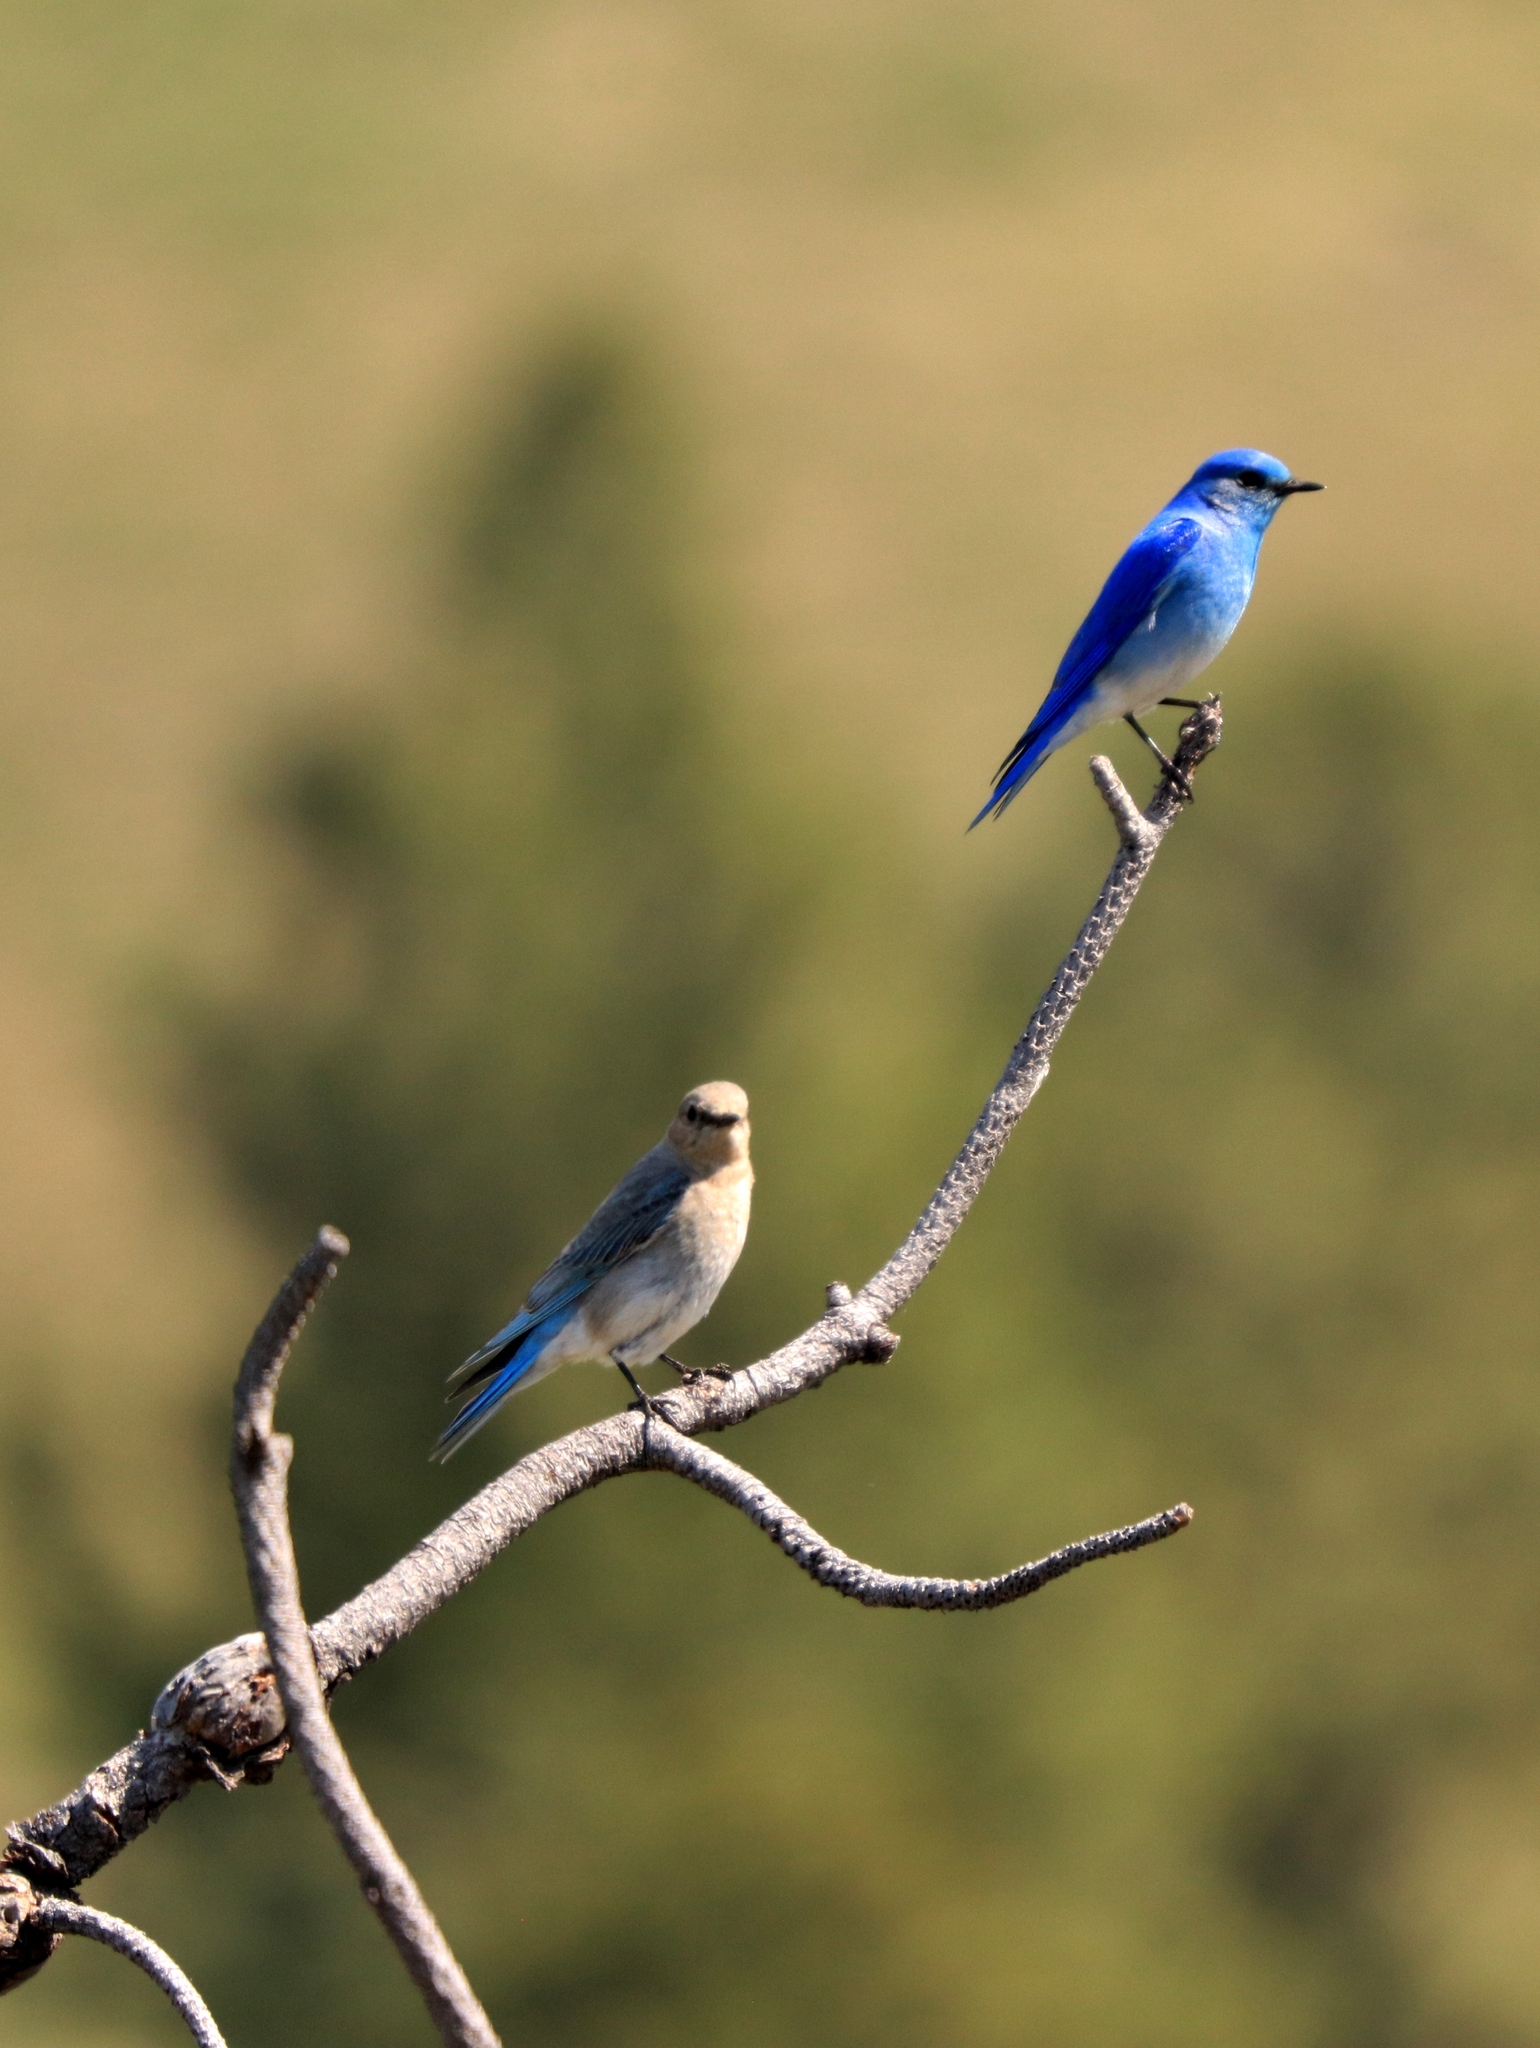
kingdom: Animalia
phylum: Chordata
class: Aves
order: Passeriformes
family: Turdidae
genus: Sialia
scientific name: Sialia currucoides
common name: Mountain bluebird
